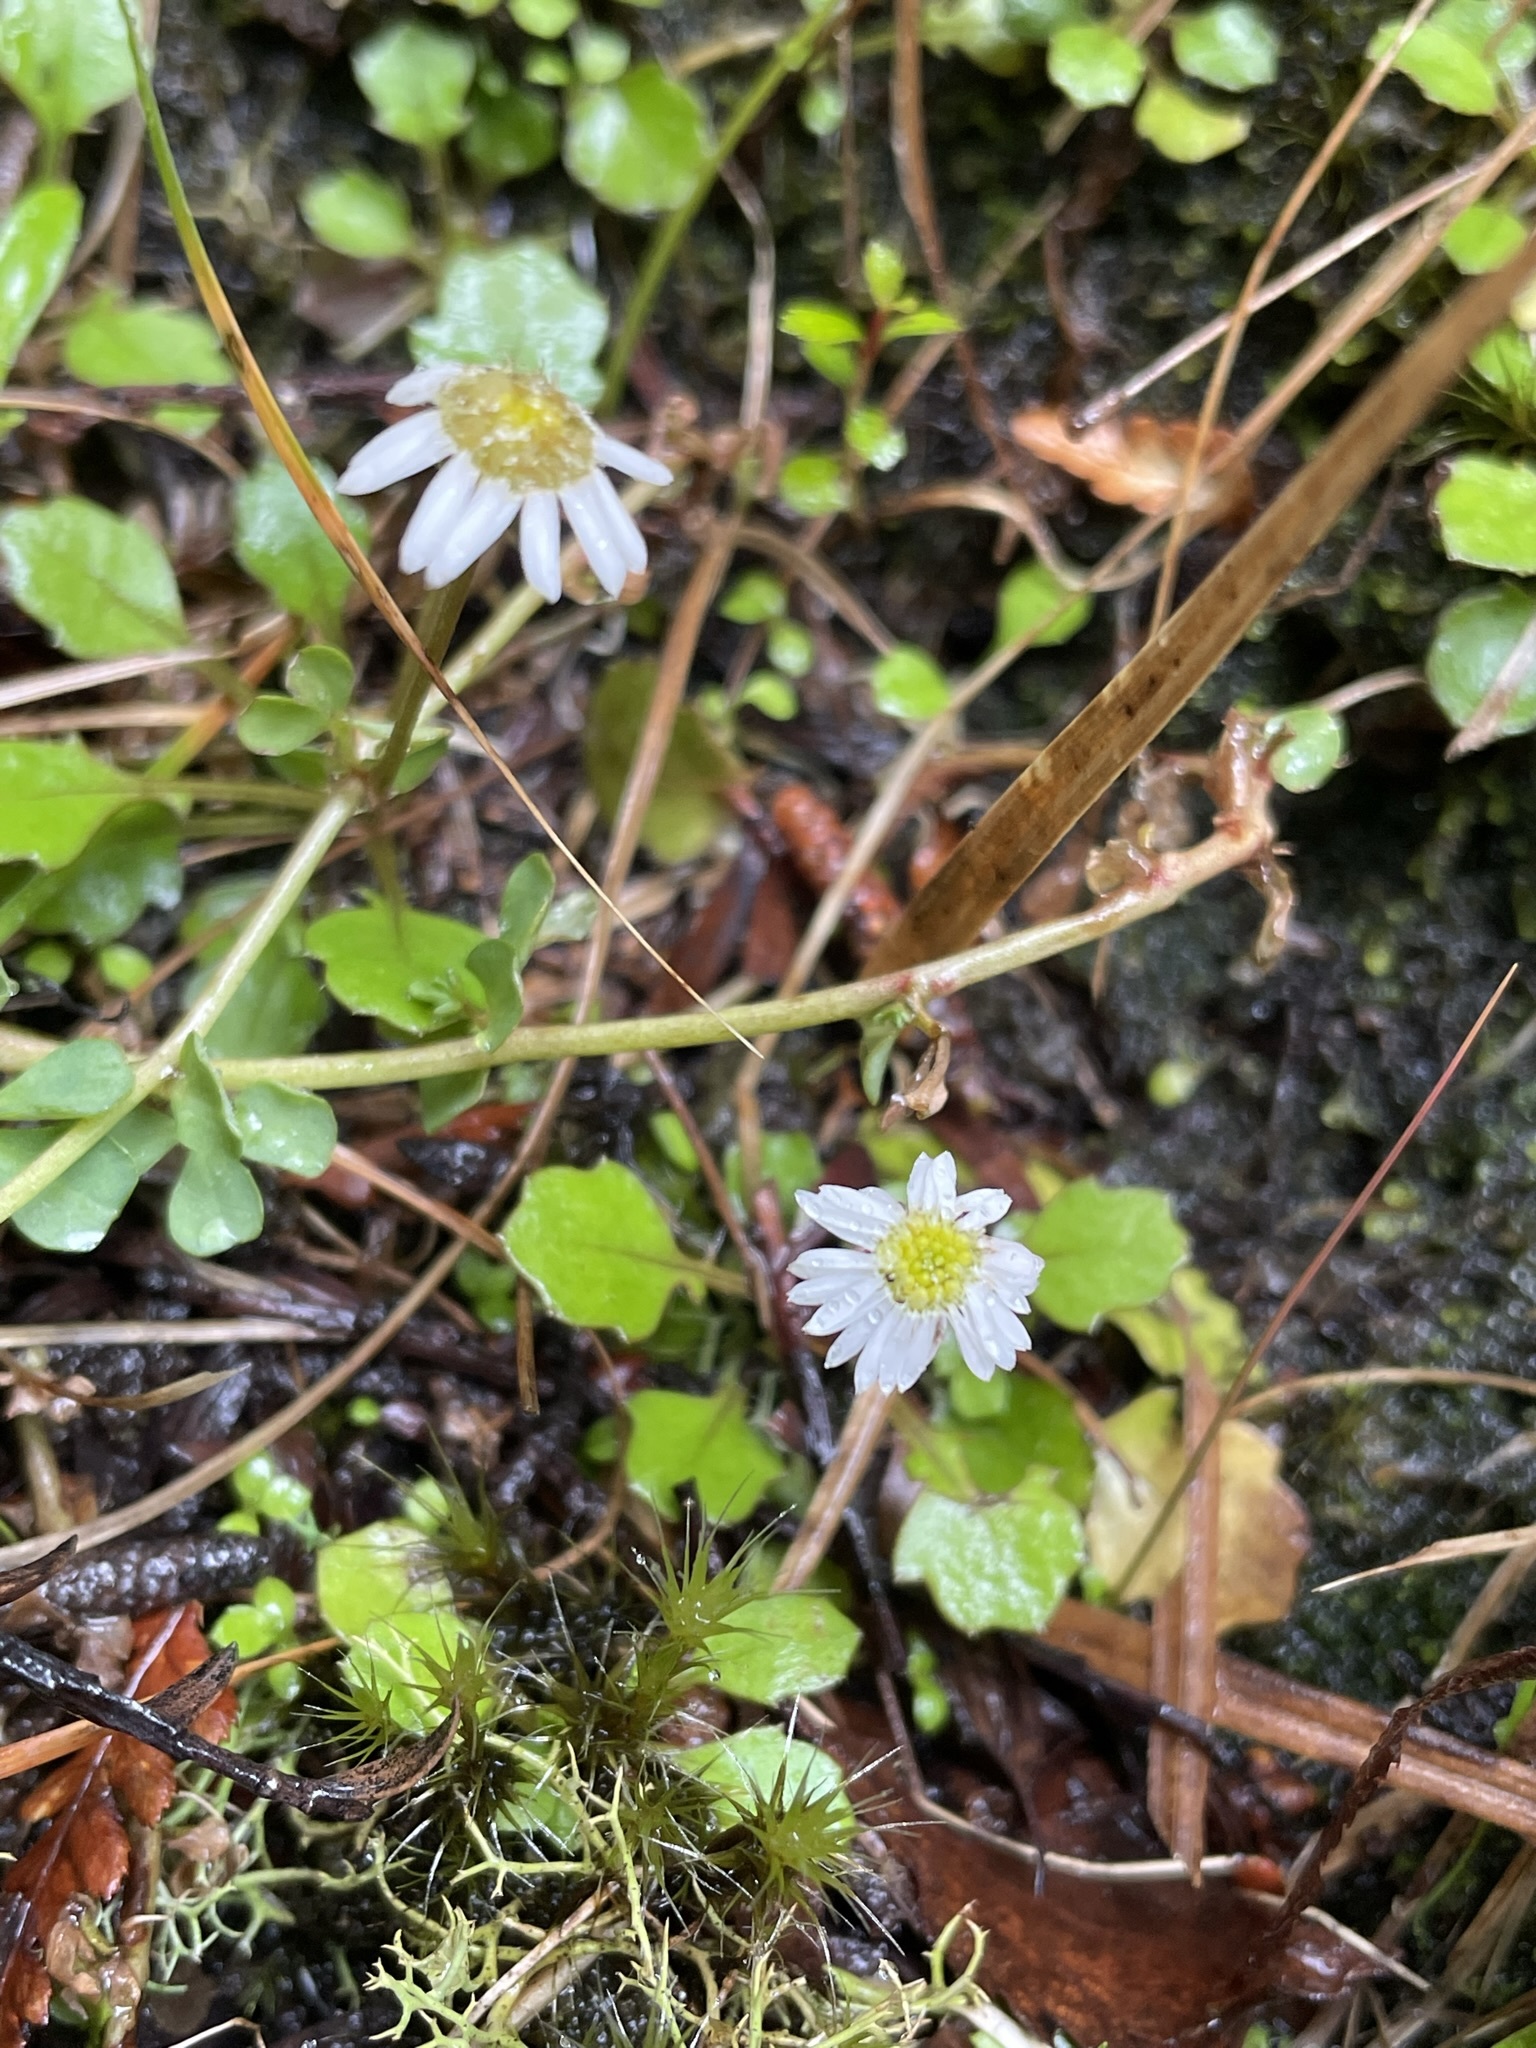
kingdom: Plantae
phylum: Tracheophyta
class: Magnoliopsida
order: Asterales
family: Asteraceae
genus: Lagenophora
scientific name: Lagenophora pumila
